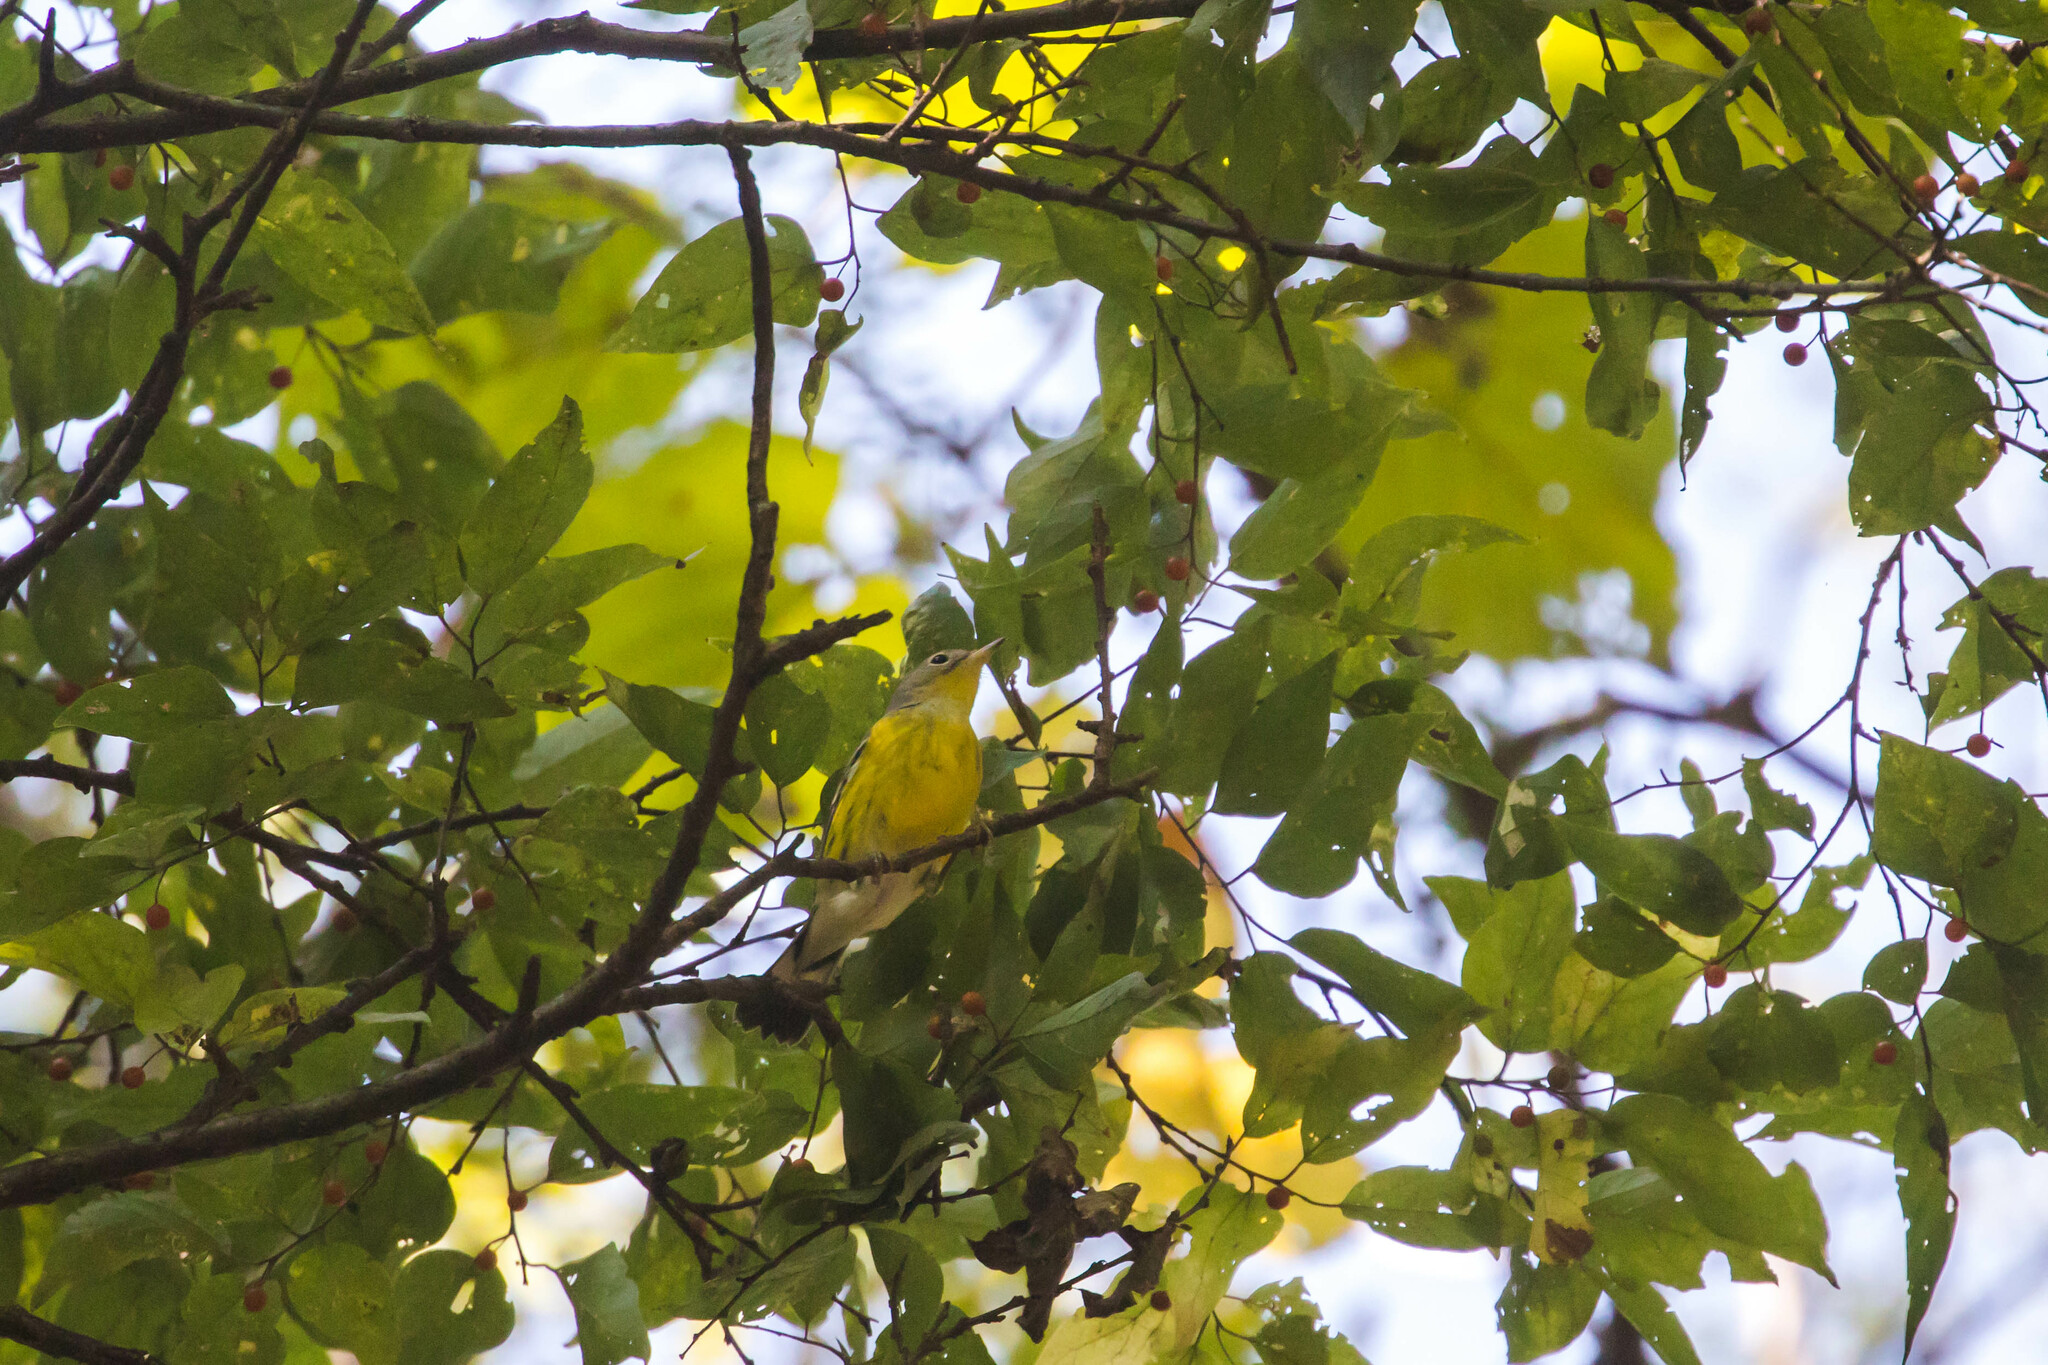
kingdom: Animalia
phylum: Chordata
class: Aves
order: Passeriformes
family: Parulidae
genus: Setophaga
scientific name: Setophaga magnolia
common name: Magnolia warbler
